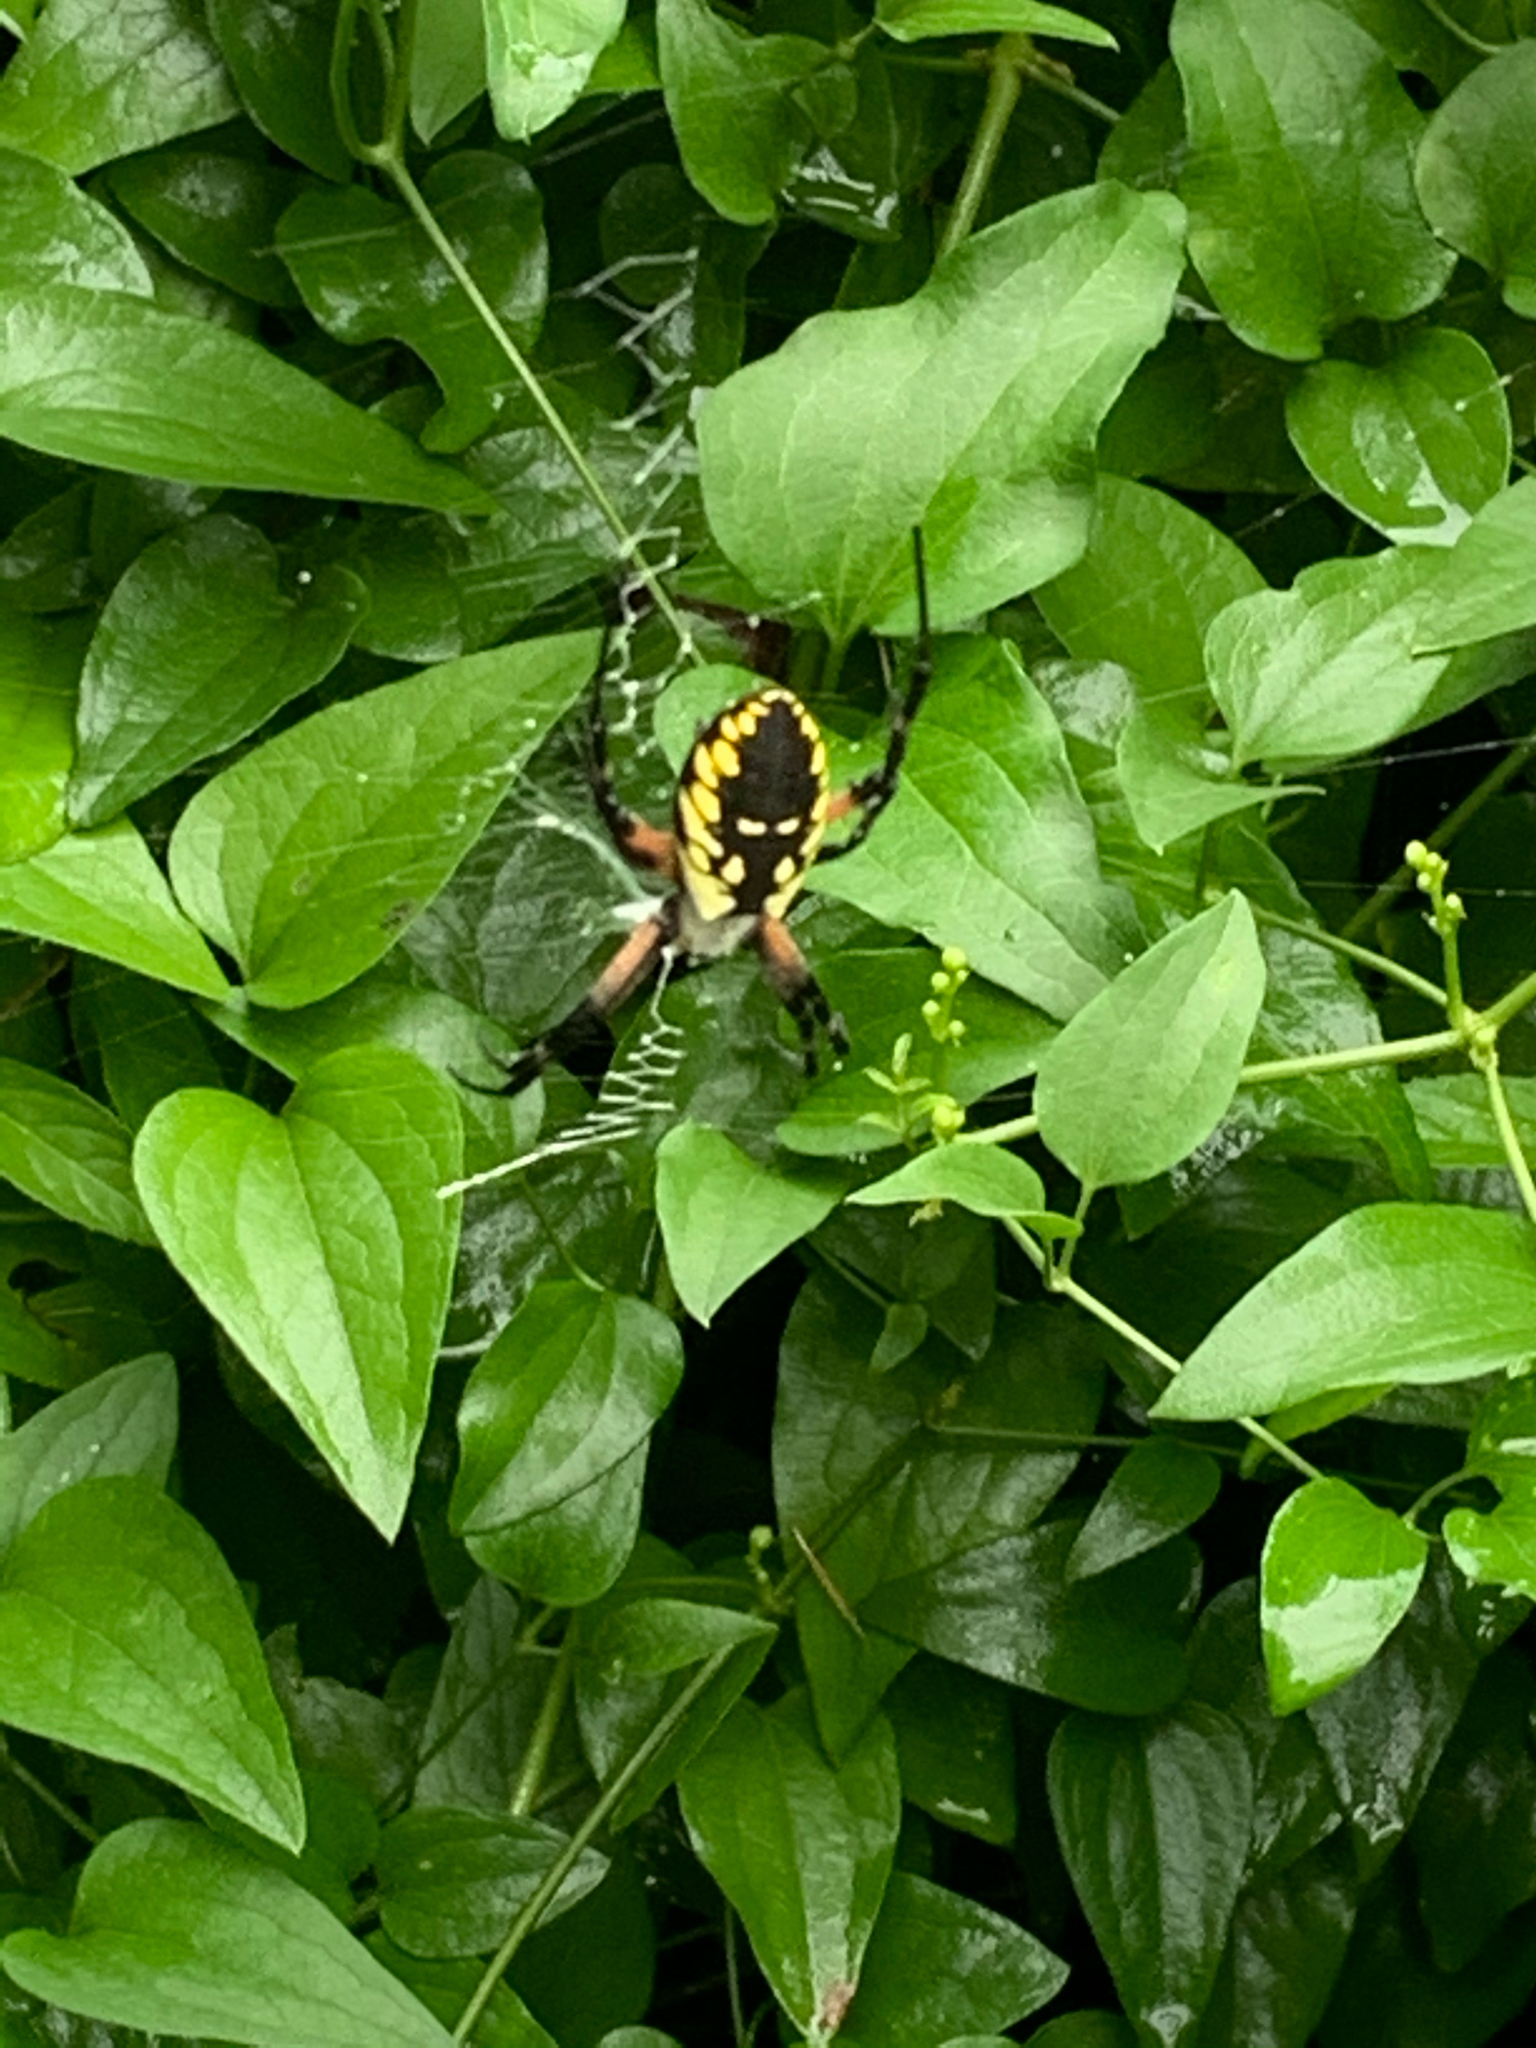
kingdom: Animalia
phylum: Arthropoda
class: Arachnida
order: Araneae
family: Araneidae
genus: Argiope
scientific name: Argiope aurantia
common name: Orb weavers
